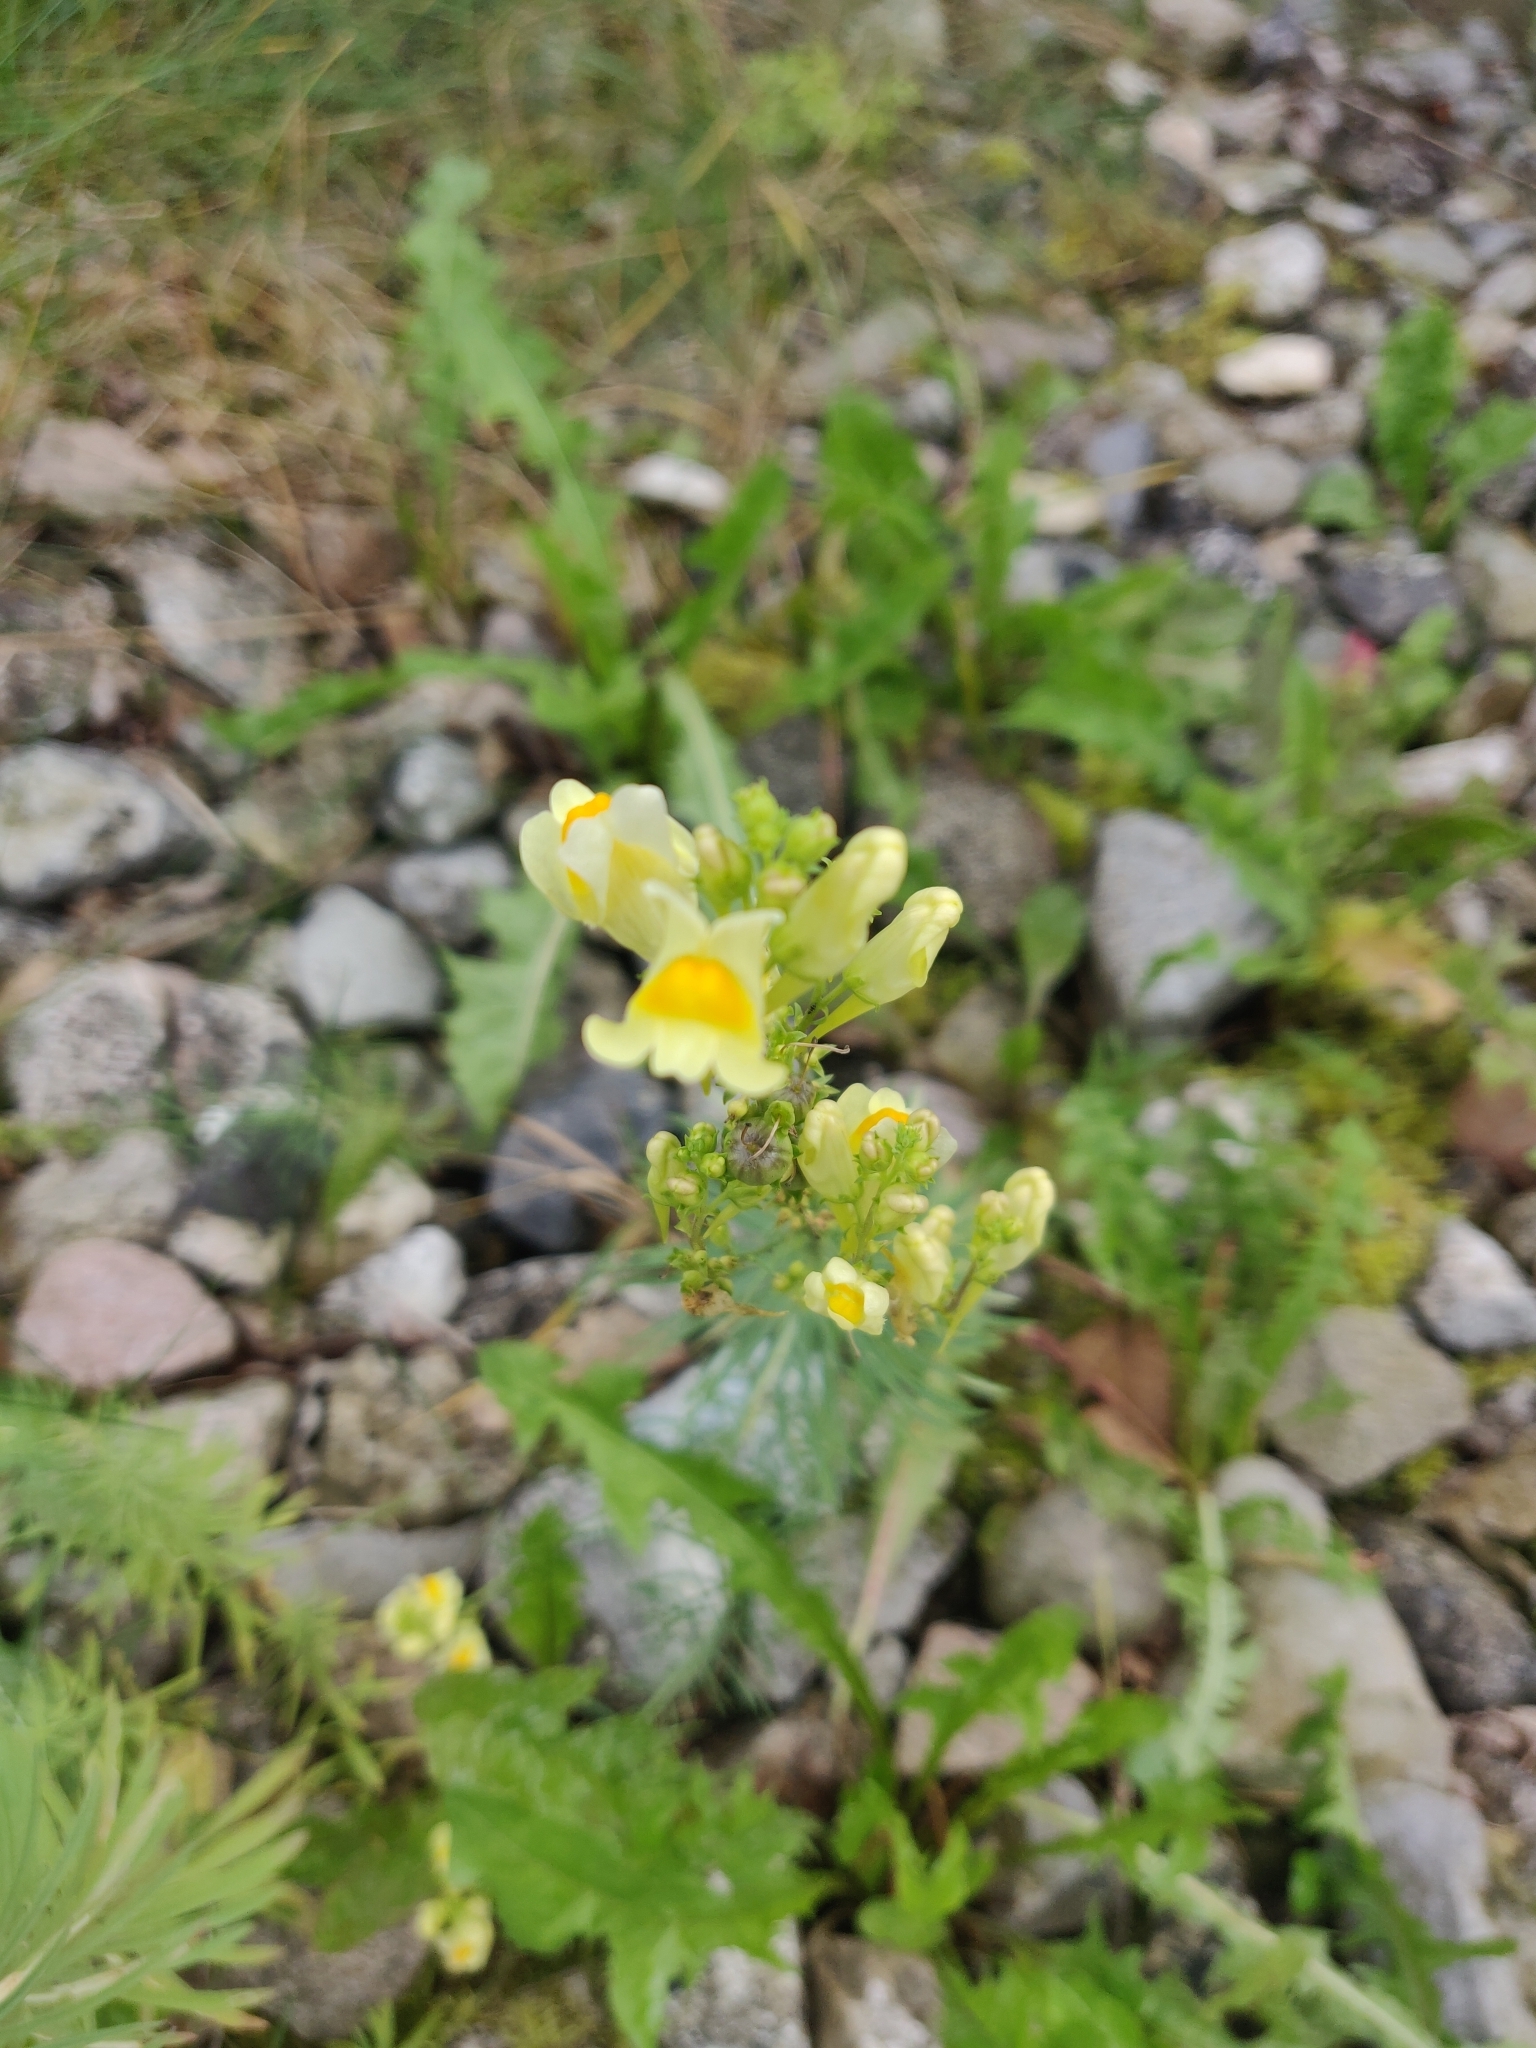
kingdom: Plantae
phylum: Tracheophyta
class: Magnoliopsida
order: Lamiales
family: Plantaginaceae
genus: Linaria
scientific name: Linaria vulgaris
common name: Butter and eggs
